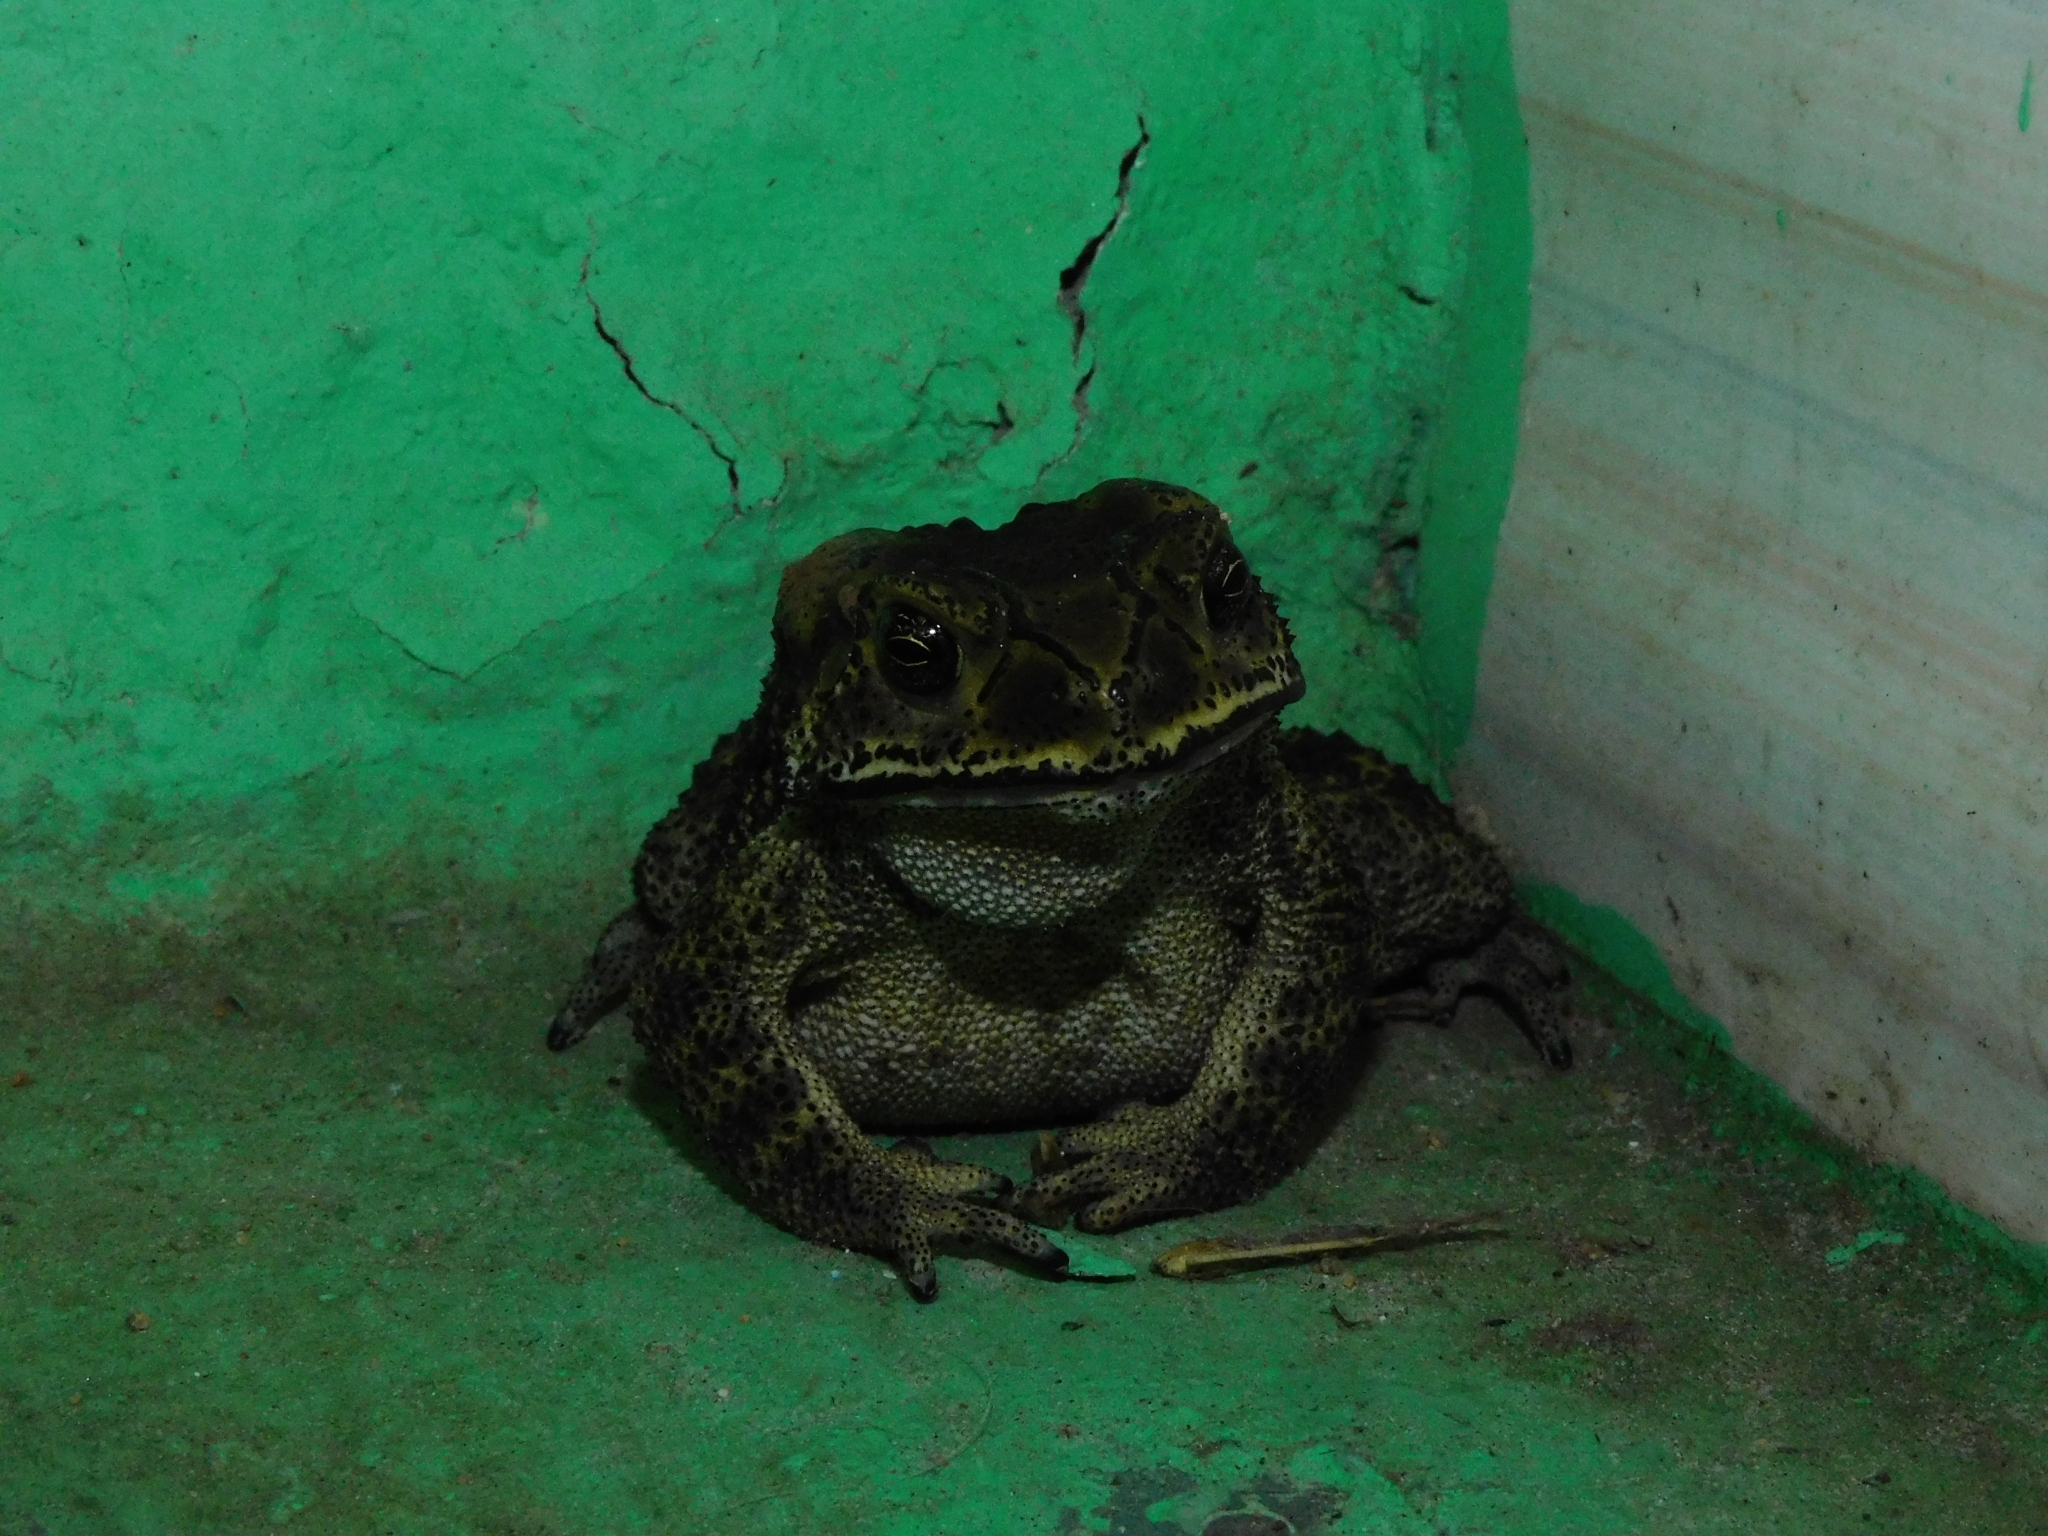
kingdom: Animalia
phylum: Chordata
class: Amphibia
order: Anura
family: Bufonidae
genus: Duttaphrynus
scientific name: Duttaphrynus melanostictus
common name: Common sunda toad
